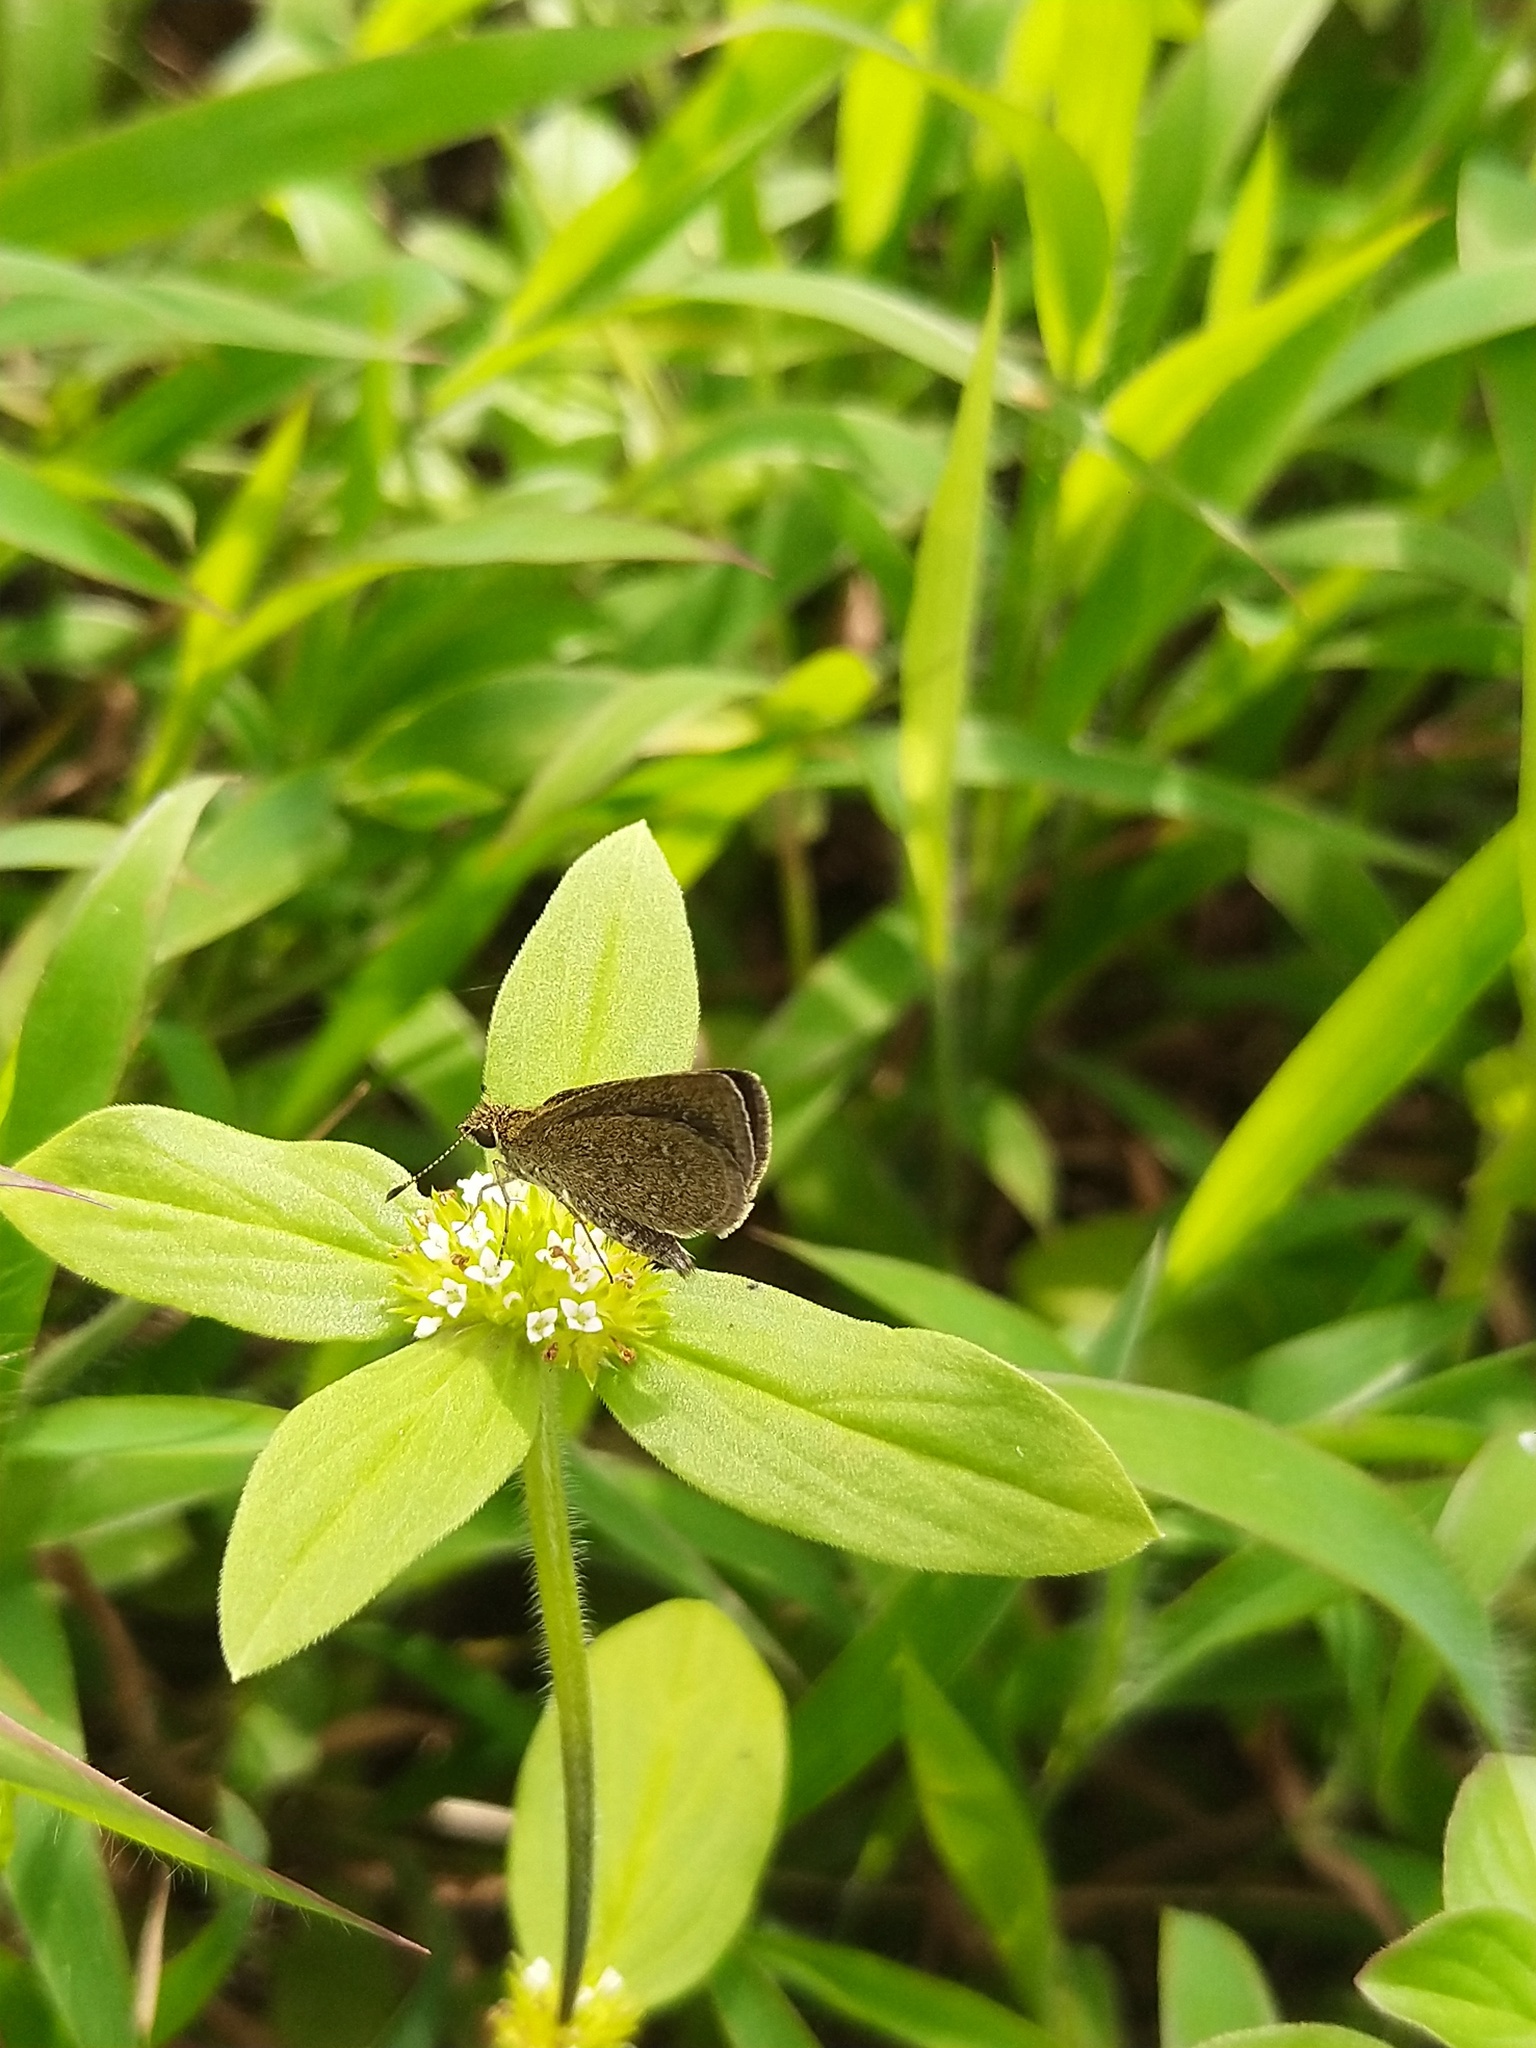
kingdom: Animalia
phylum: Arthropoda
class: Insecta
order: Lepidoptera
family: Hesperiidae
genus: Aeromachus
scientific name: Aeromachus pygmaeus
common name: Pygmy scrub hopper
